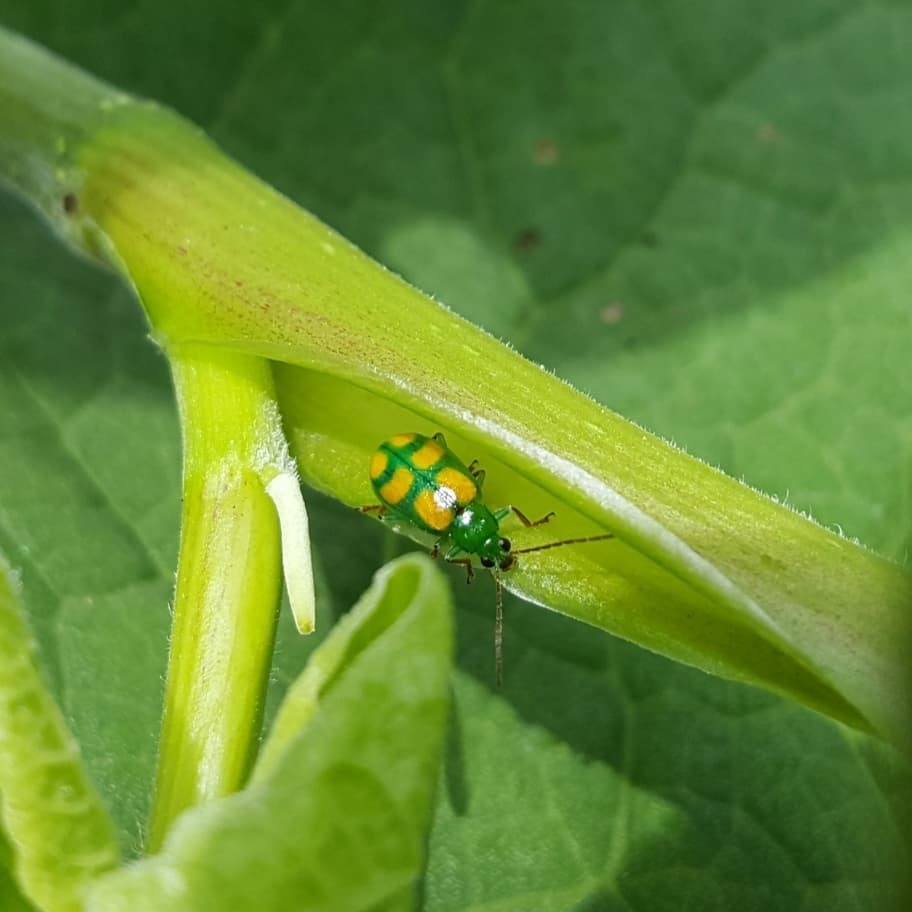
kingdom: Animalia
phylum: Arthropoda
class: Insecta
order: Coleoptera
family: Chrysomelidae
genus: Diabrotica
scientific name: Diabrotica
